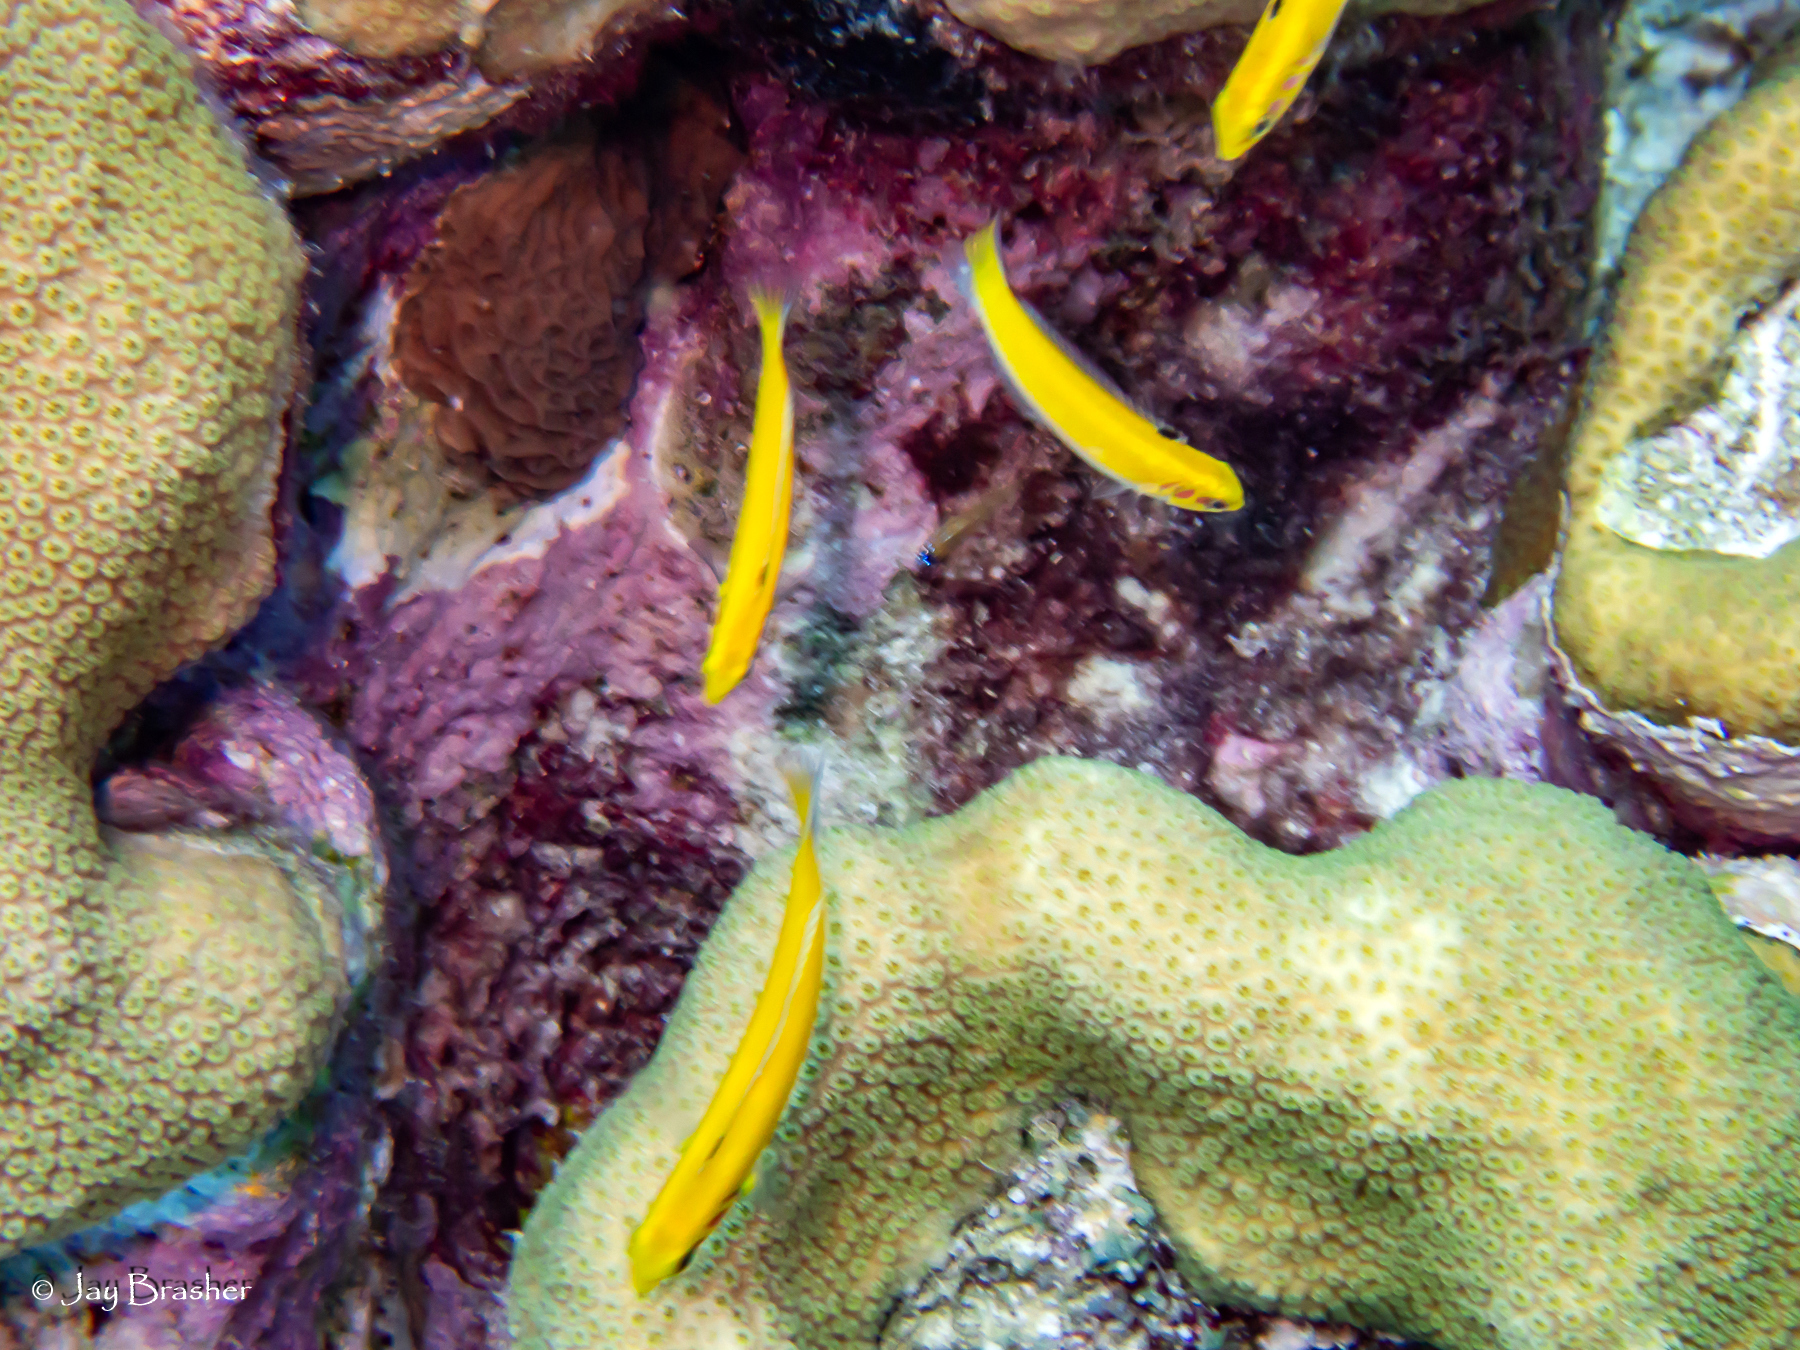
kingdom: Animalia
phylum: Chordata
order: Perciformes
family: Labridae
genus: Thalassoma
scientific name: Thalassoma bifasciatum
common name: Bluehead wrasse
